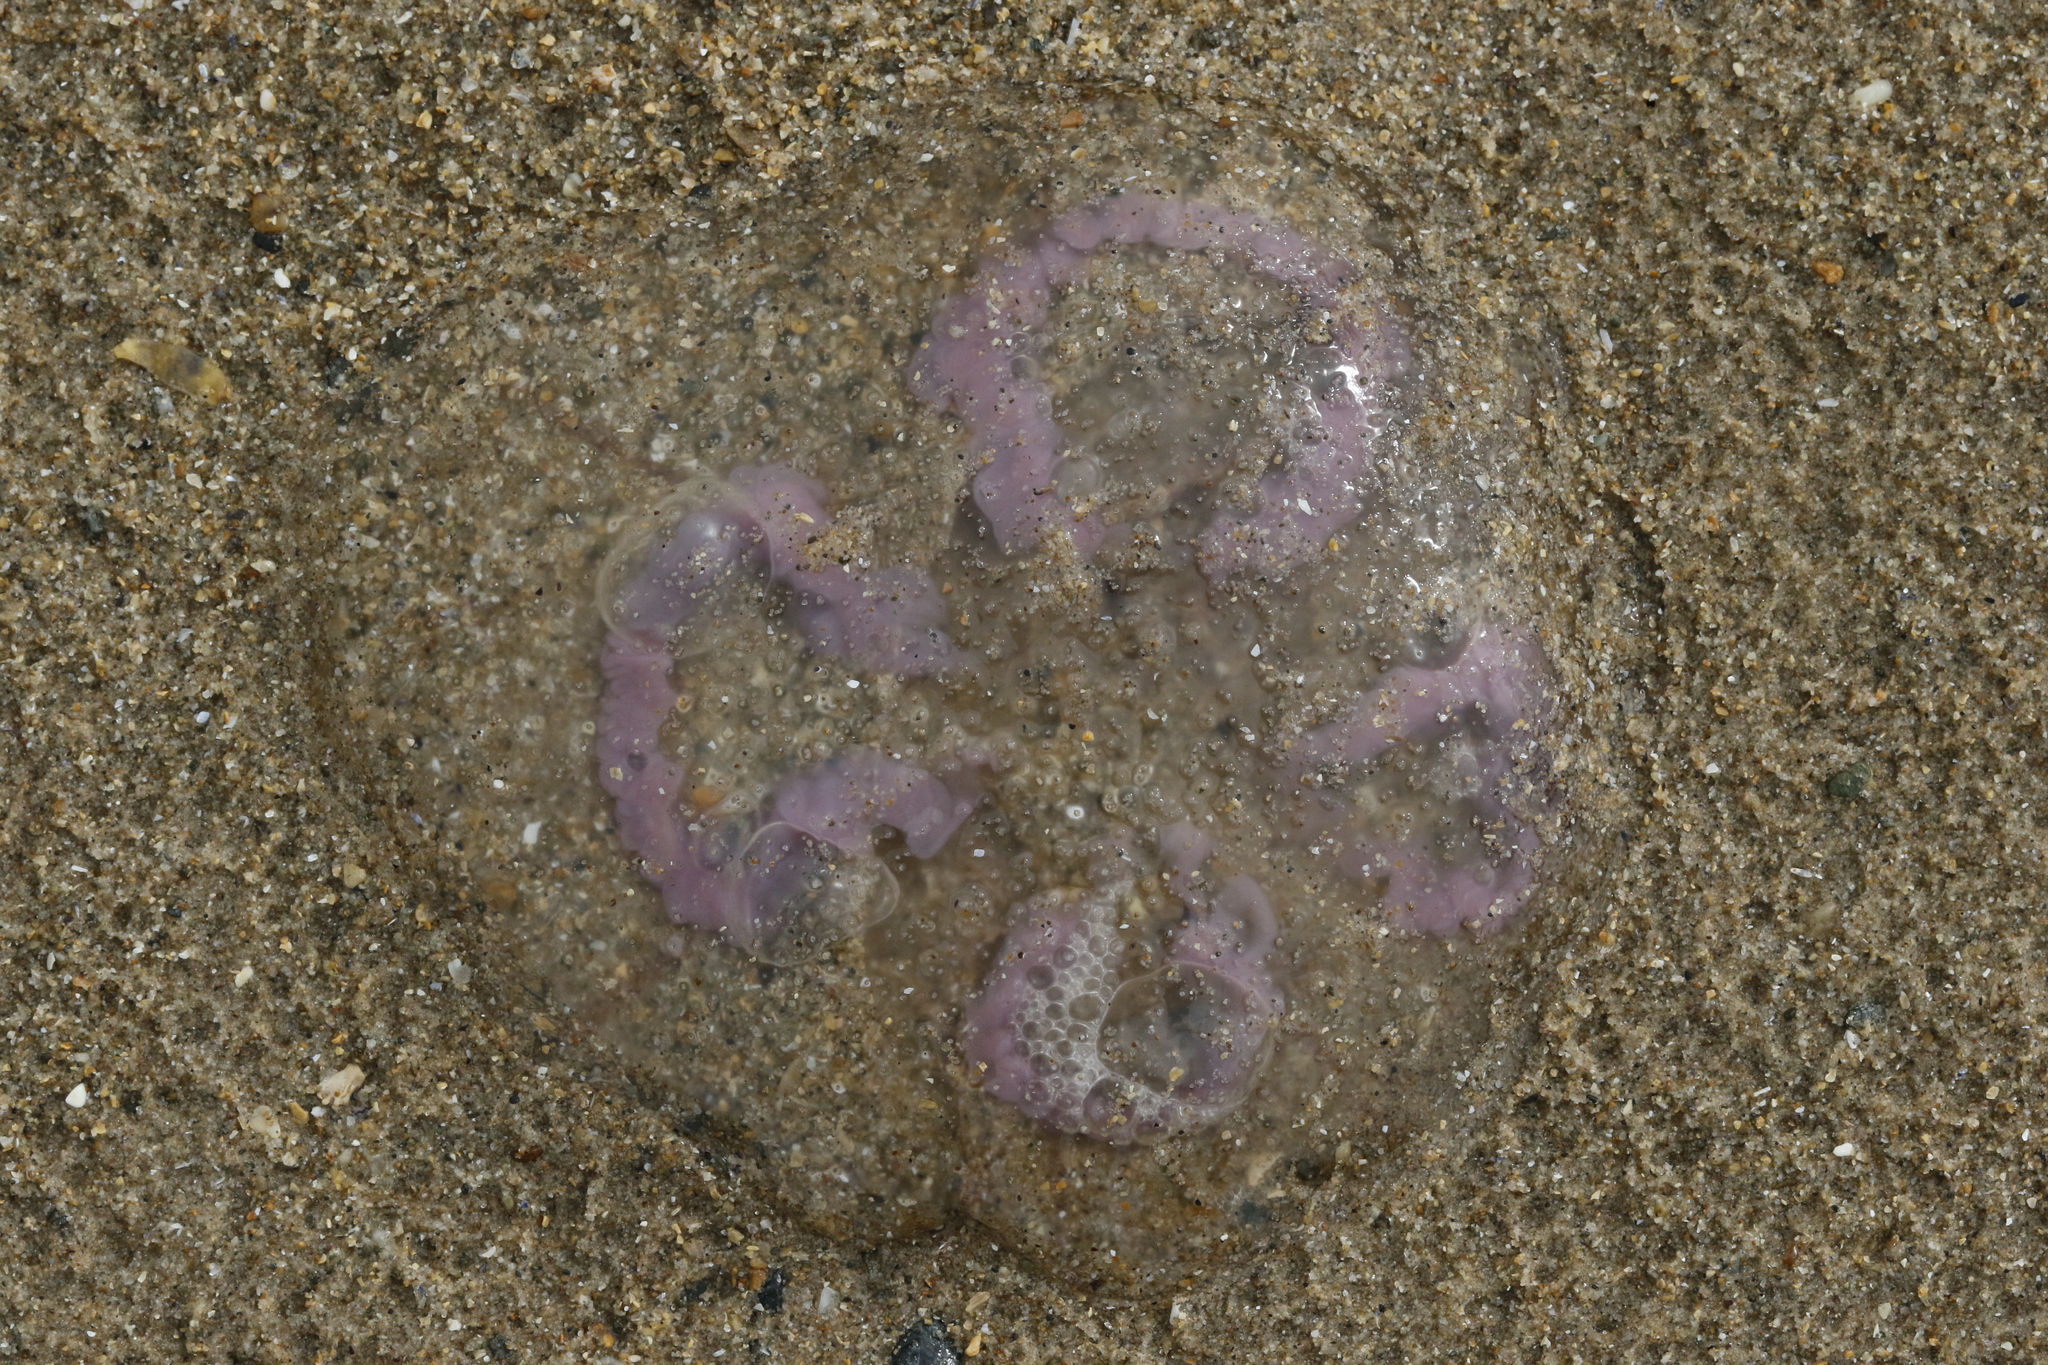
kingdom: Animalia
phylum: Cnidaria
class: Scyphozoa
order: Semaeostomeae
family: Ulmaridae
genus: Aurelia
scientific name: Aurelia aurita
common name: Moon jellyfish
